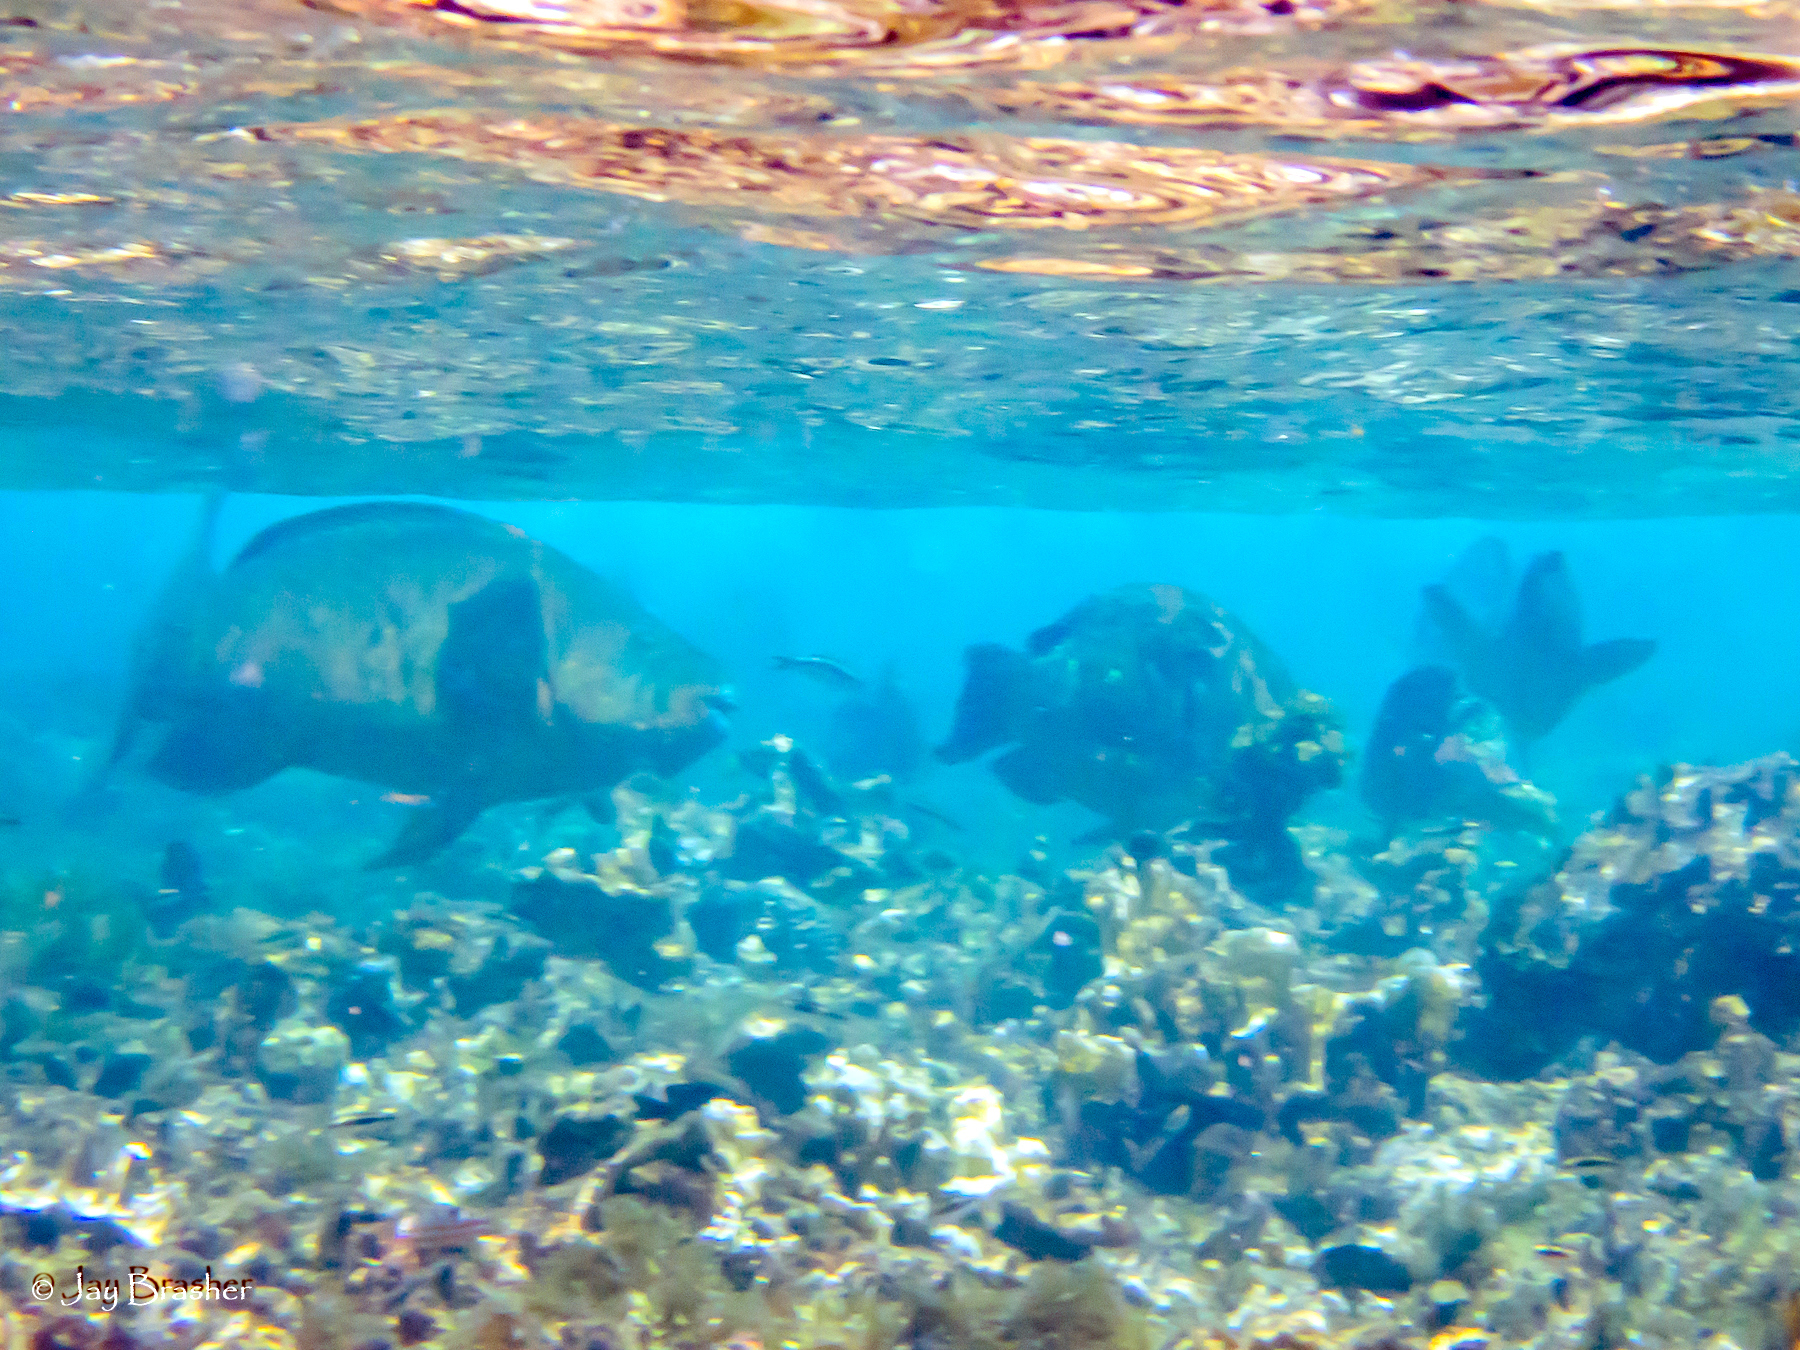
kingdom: Animalia
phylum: Chordata
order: Perciformes
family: Scaridae
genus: Scarus
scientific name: Scarus guacamaia
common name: Rainbow parrotfish
